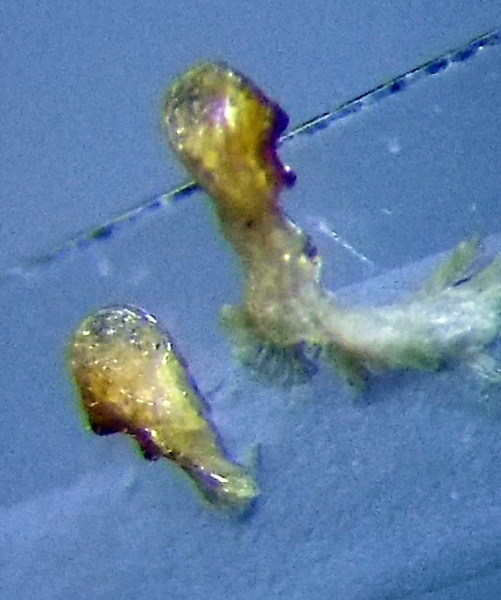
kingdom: Animalia
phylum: Arthropoda
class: Insecta
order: Hemiptera
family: Coreidae
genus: Coriomeris
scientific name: Coriomeris denticulatus
